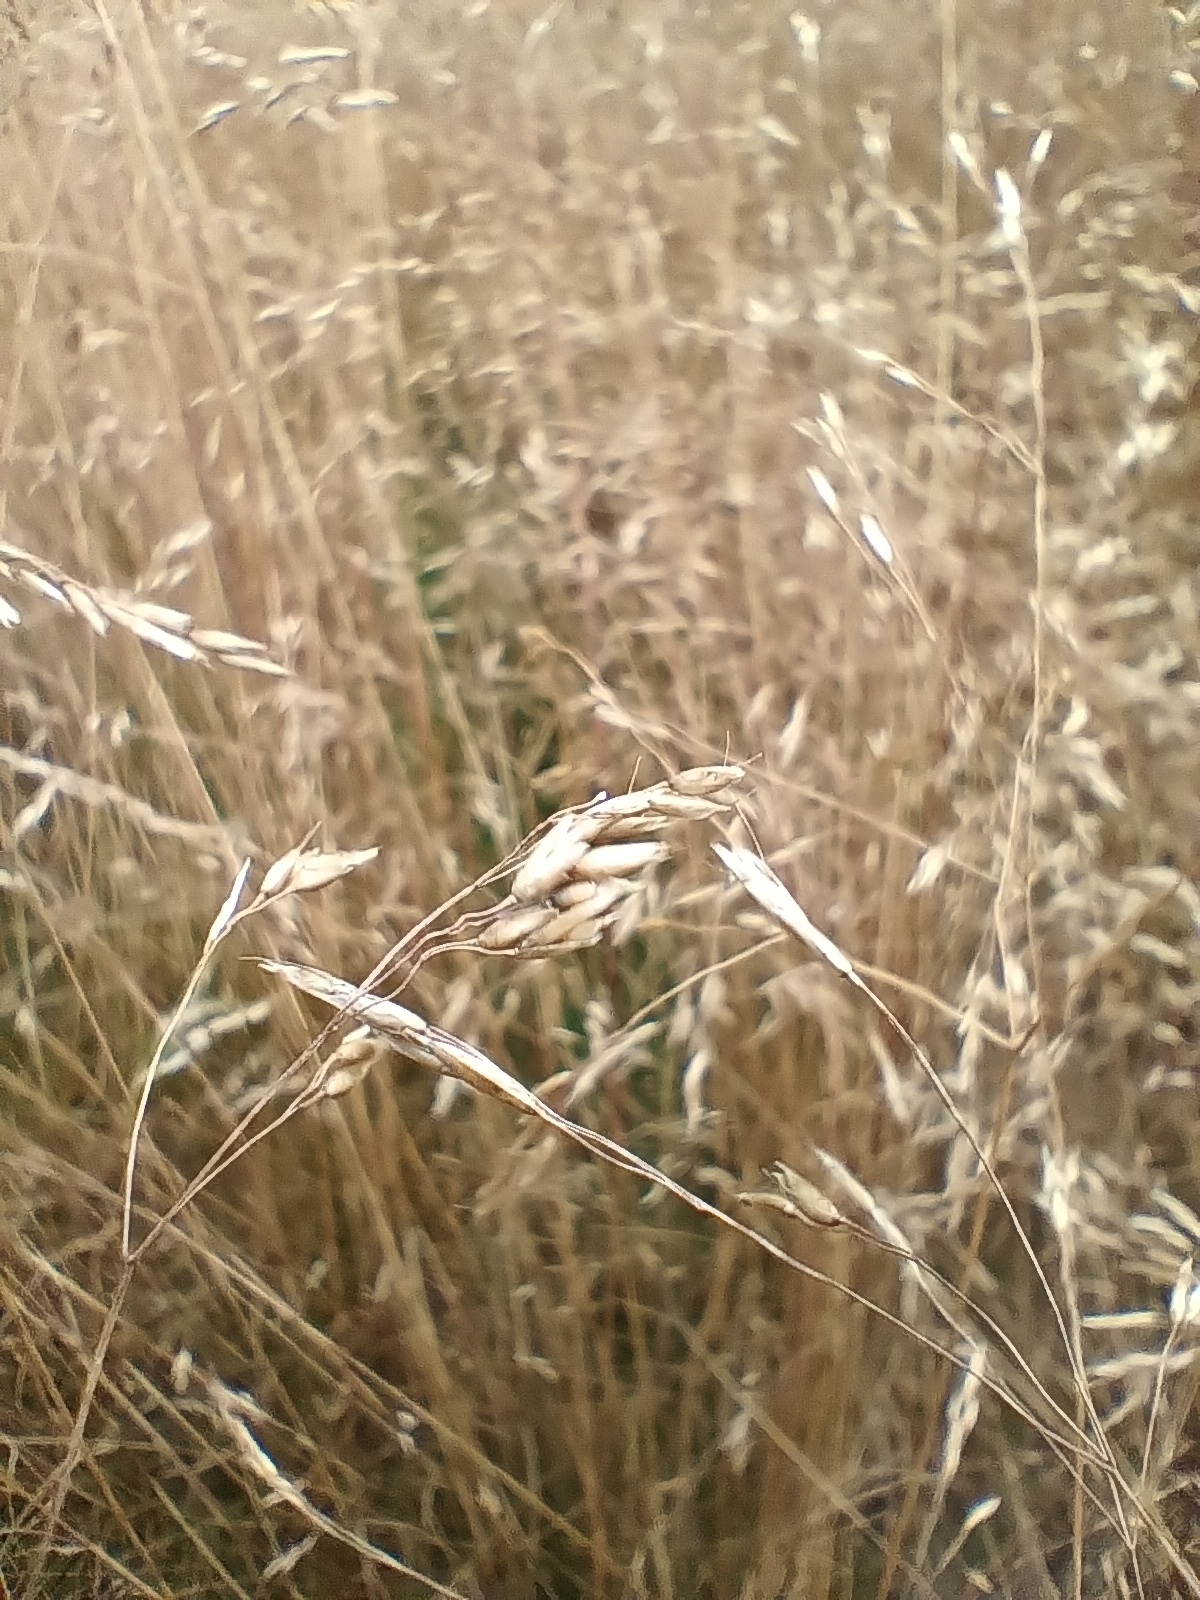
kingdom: Plantae
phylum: Tracheophyta
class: Liliopsida
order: Poales
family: Poaceae
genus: Avenella
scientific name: Avenella flexuosa
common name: Wavy hairgrass
